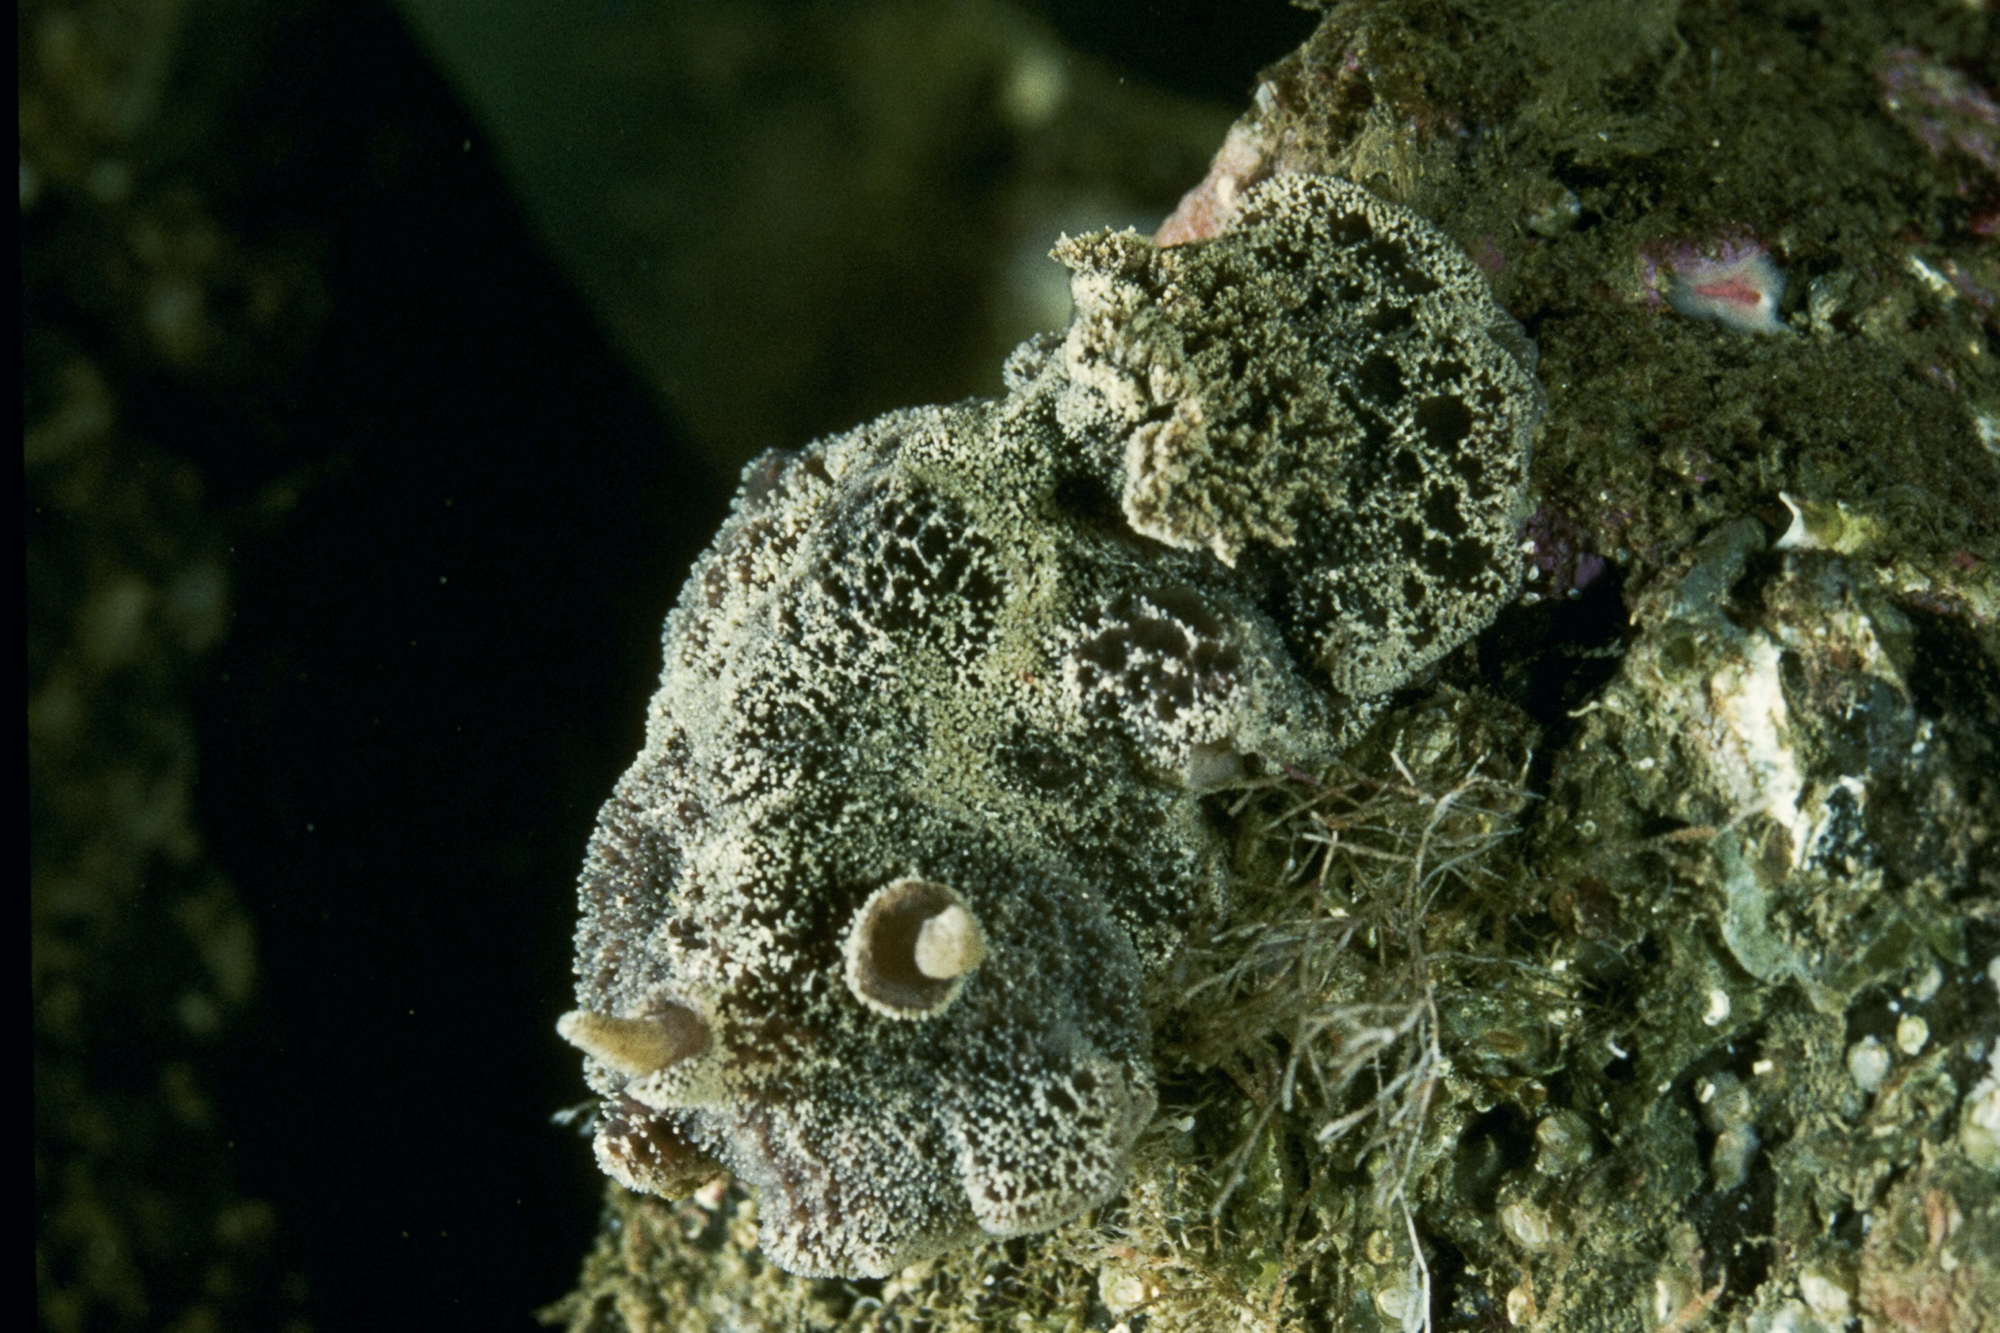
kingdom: Animalia
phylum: Mollusca
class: Gastropoda
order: Nudibranchia
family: Discodorididae
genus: Atagema
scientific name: Atagema gibba
